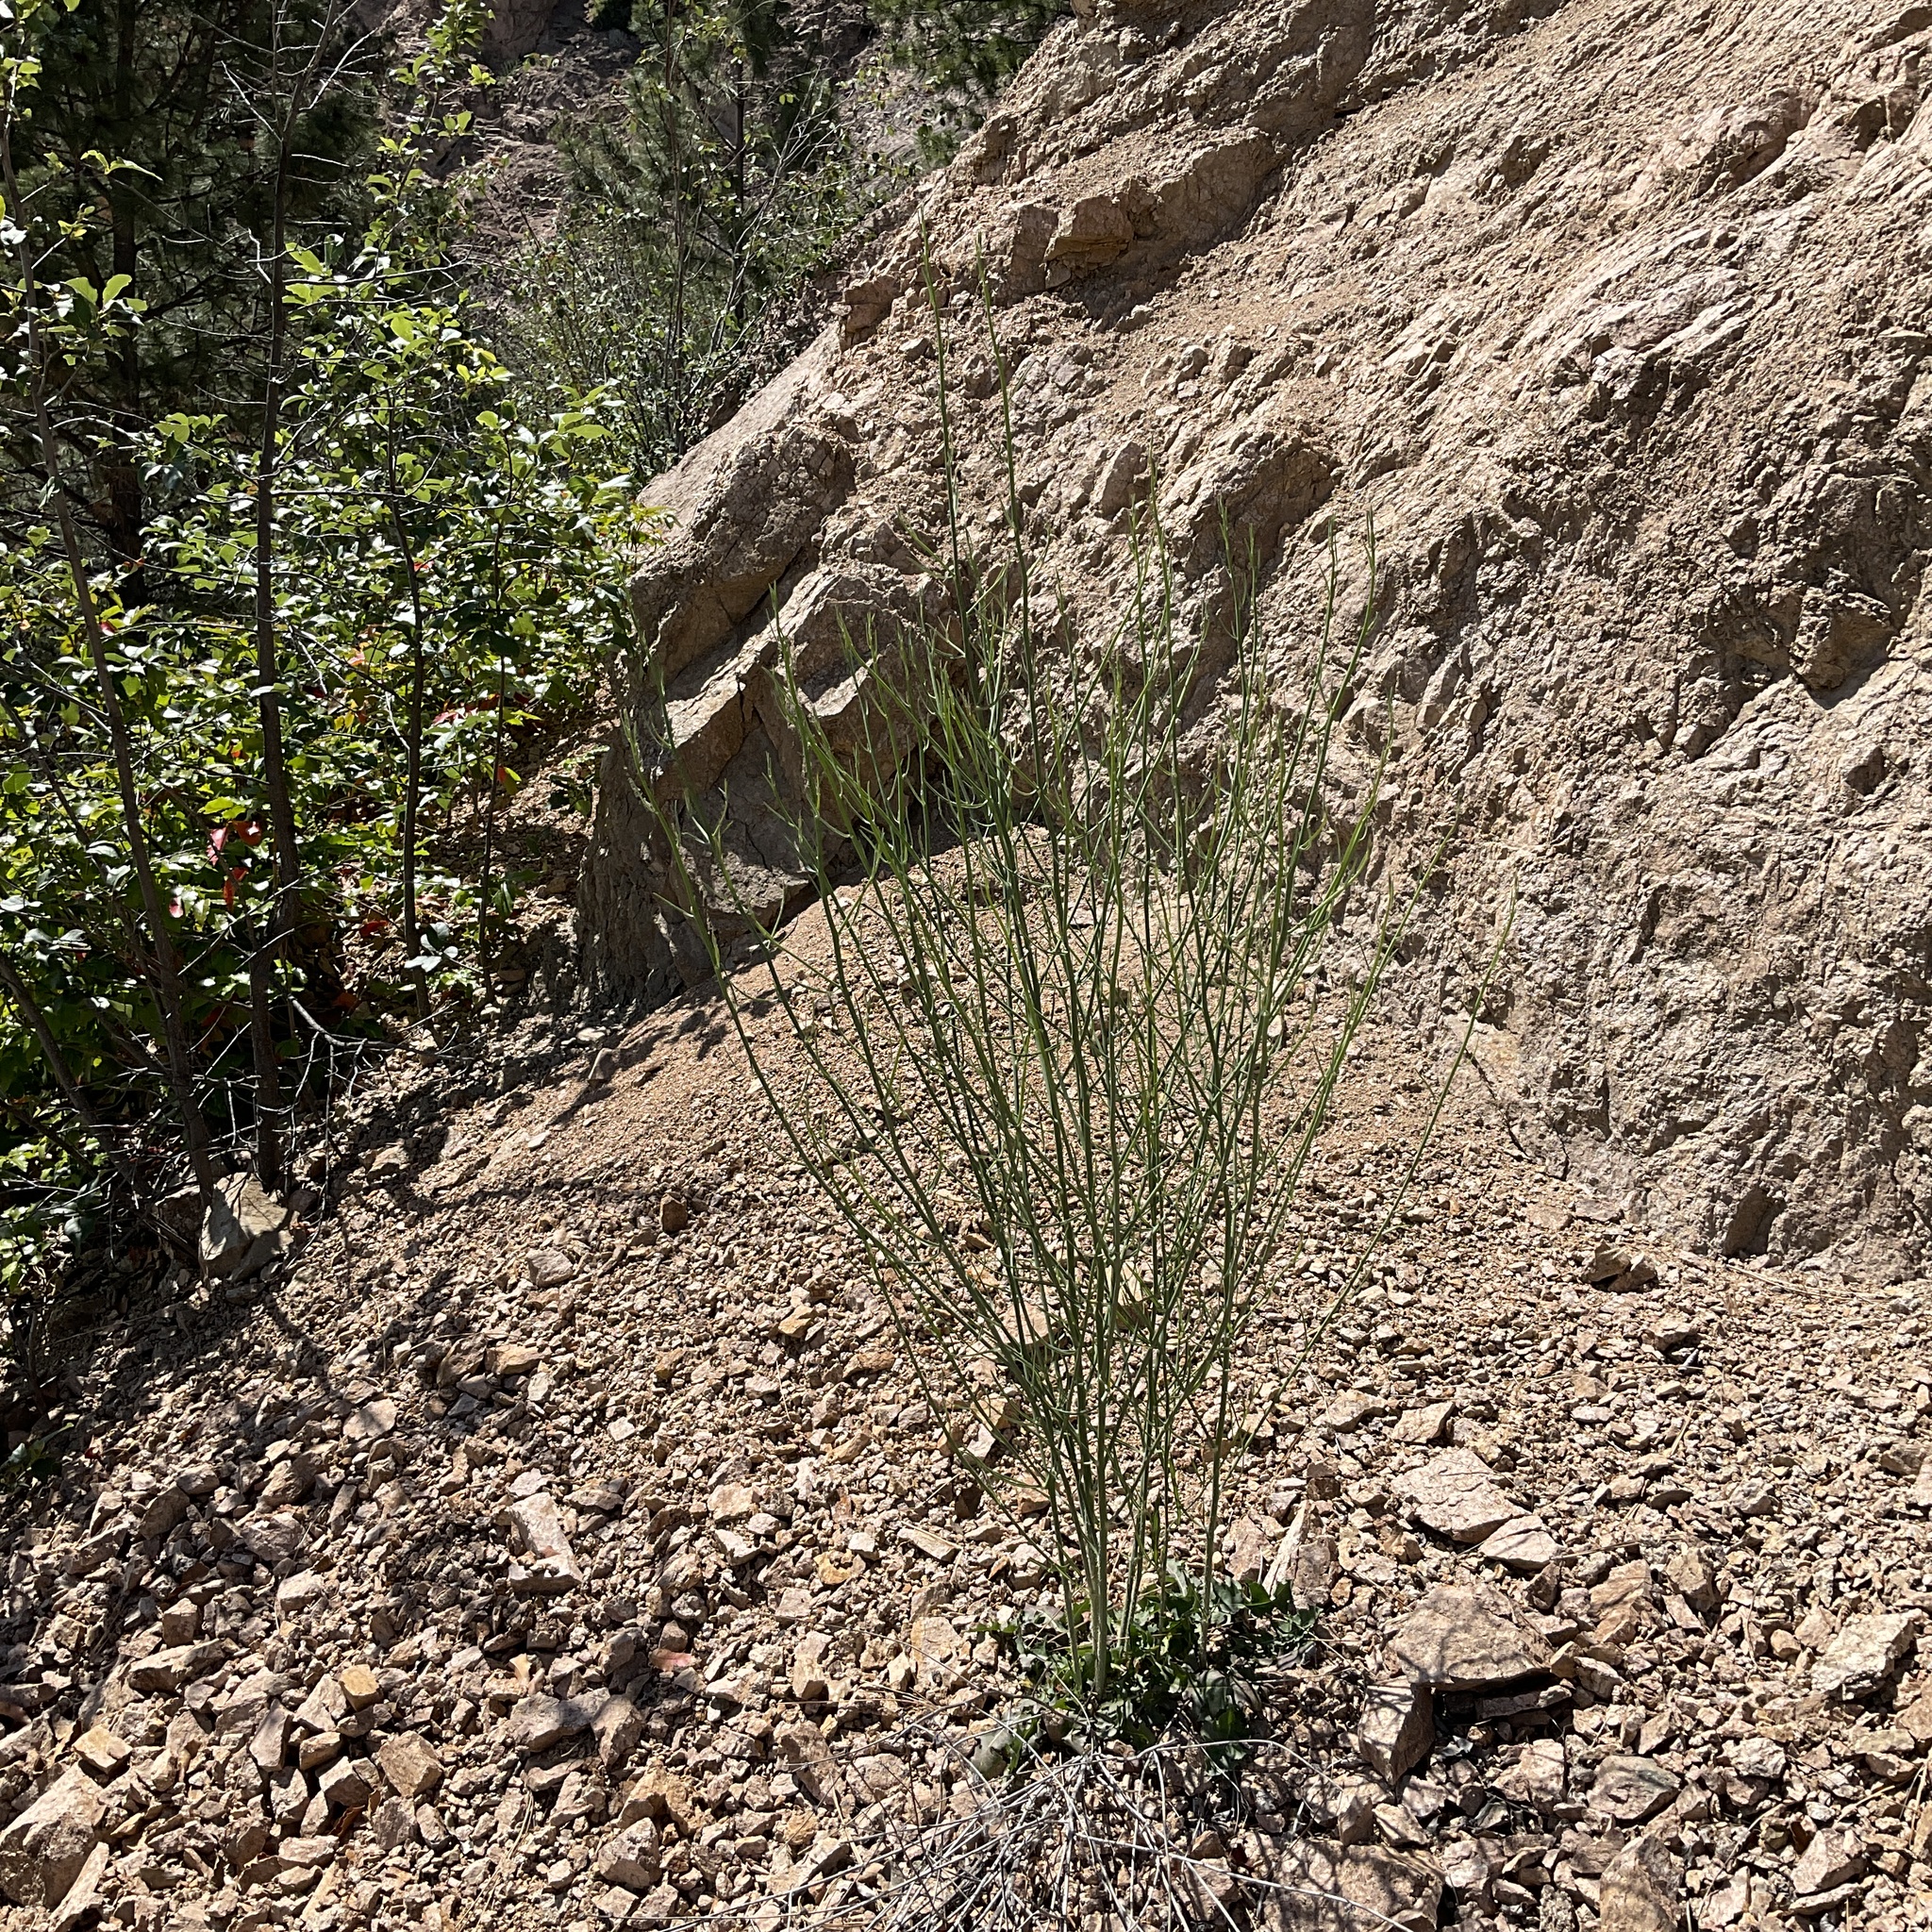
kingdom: Plantae
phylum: Tracheophyta
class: Magnoliopsida
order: Asterales
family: Asteraceae
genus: Chondrilla
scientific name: Chondrilla juncea
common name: Skeleton weed
